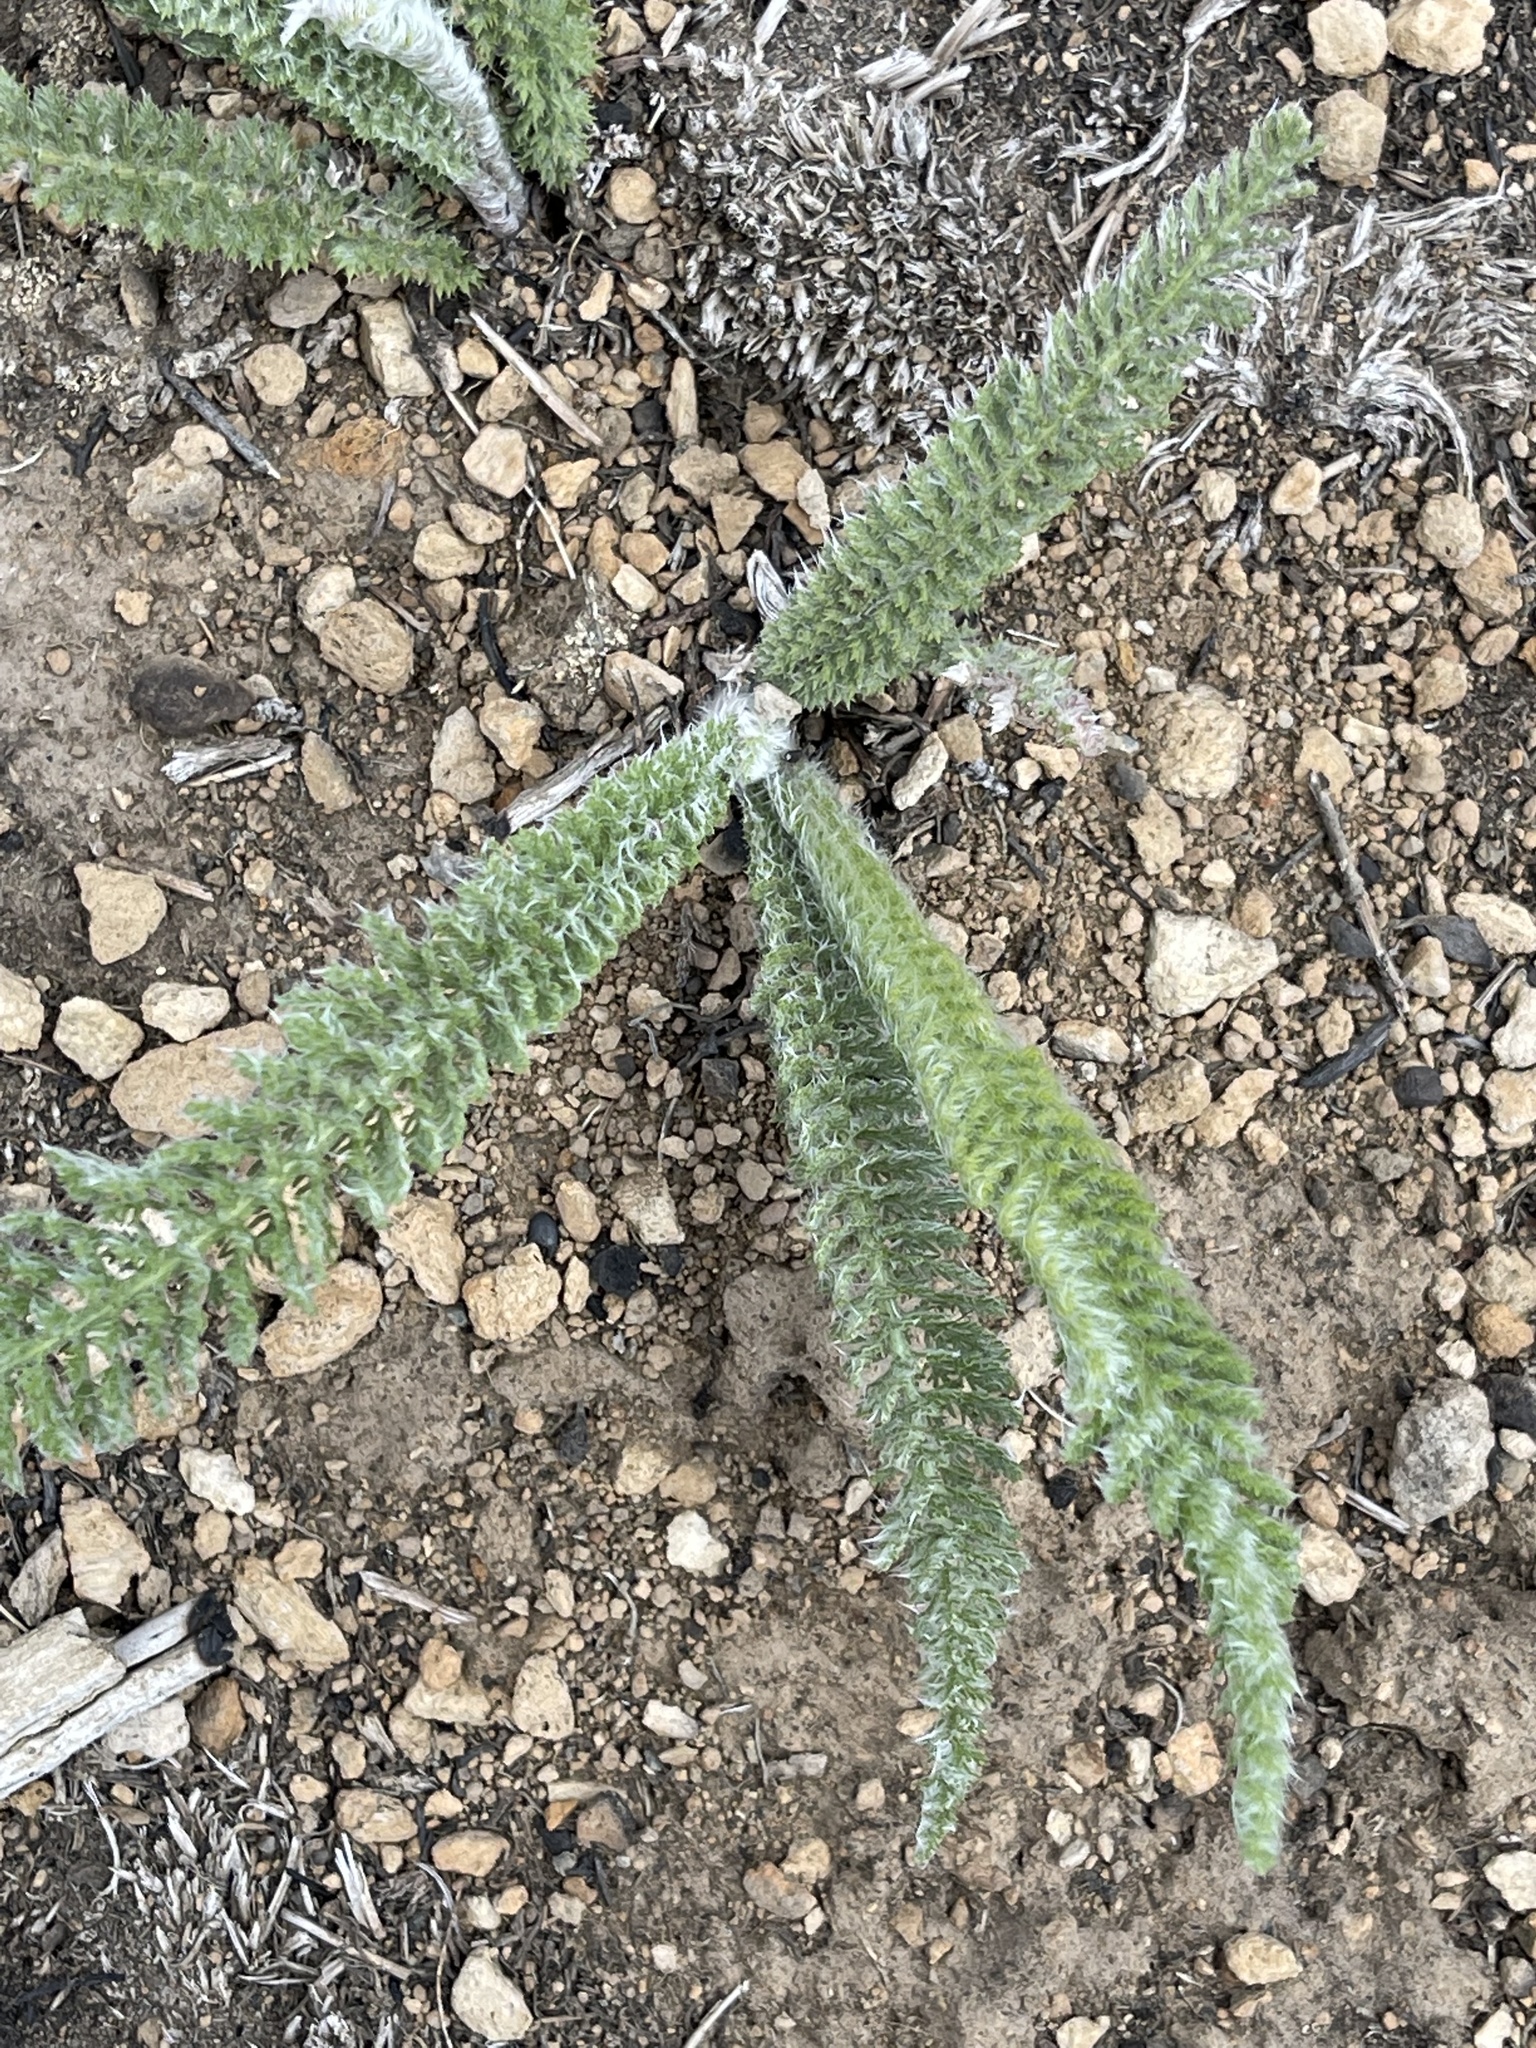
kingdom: Plantae
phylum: Tracheophyta
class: Magnoliopsida
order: Asterales
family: Asteraceae
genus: Achillea
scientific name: Achillea millefolium
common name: Yarrow
